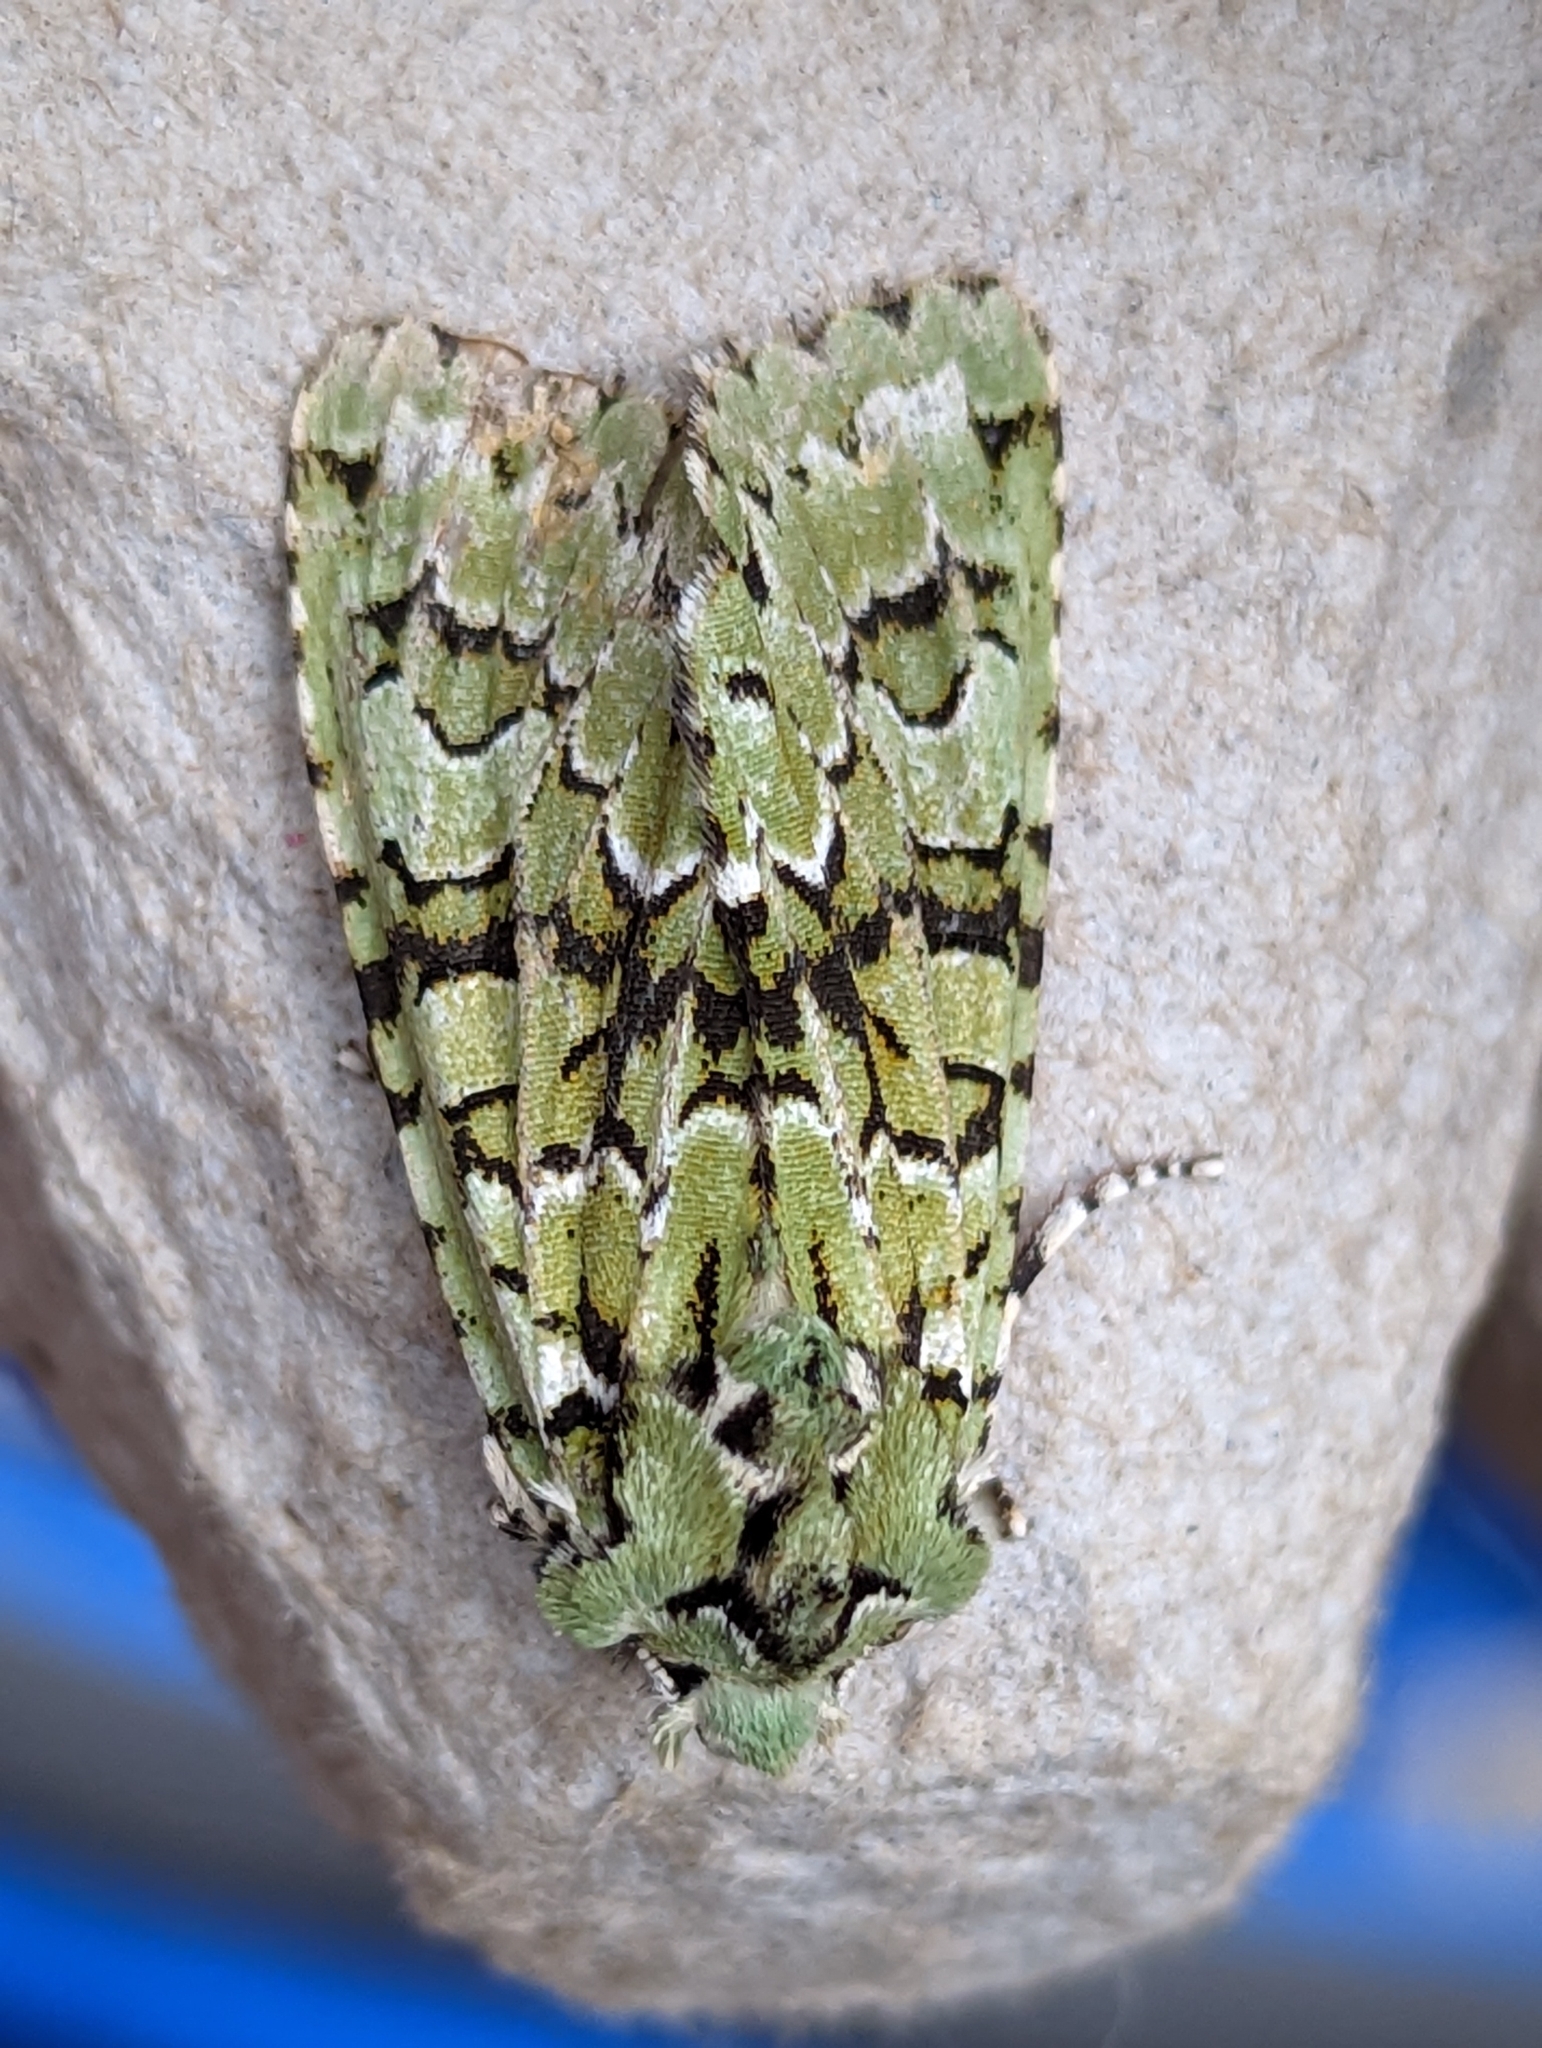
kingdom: Animalia
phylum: Arthropoda
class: Insecta
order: Lepidoptera
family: Noctuidae
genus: Griposia
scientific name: Griposia aprilina
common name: Merveille du jour
